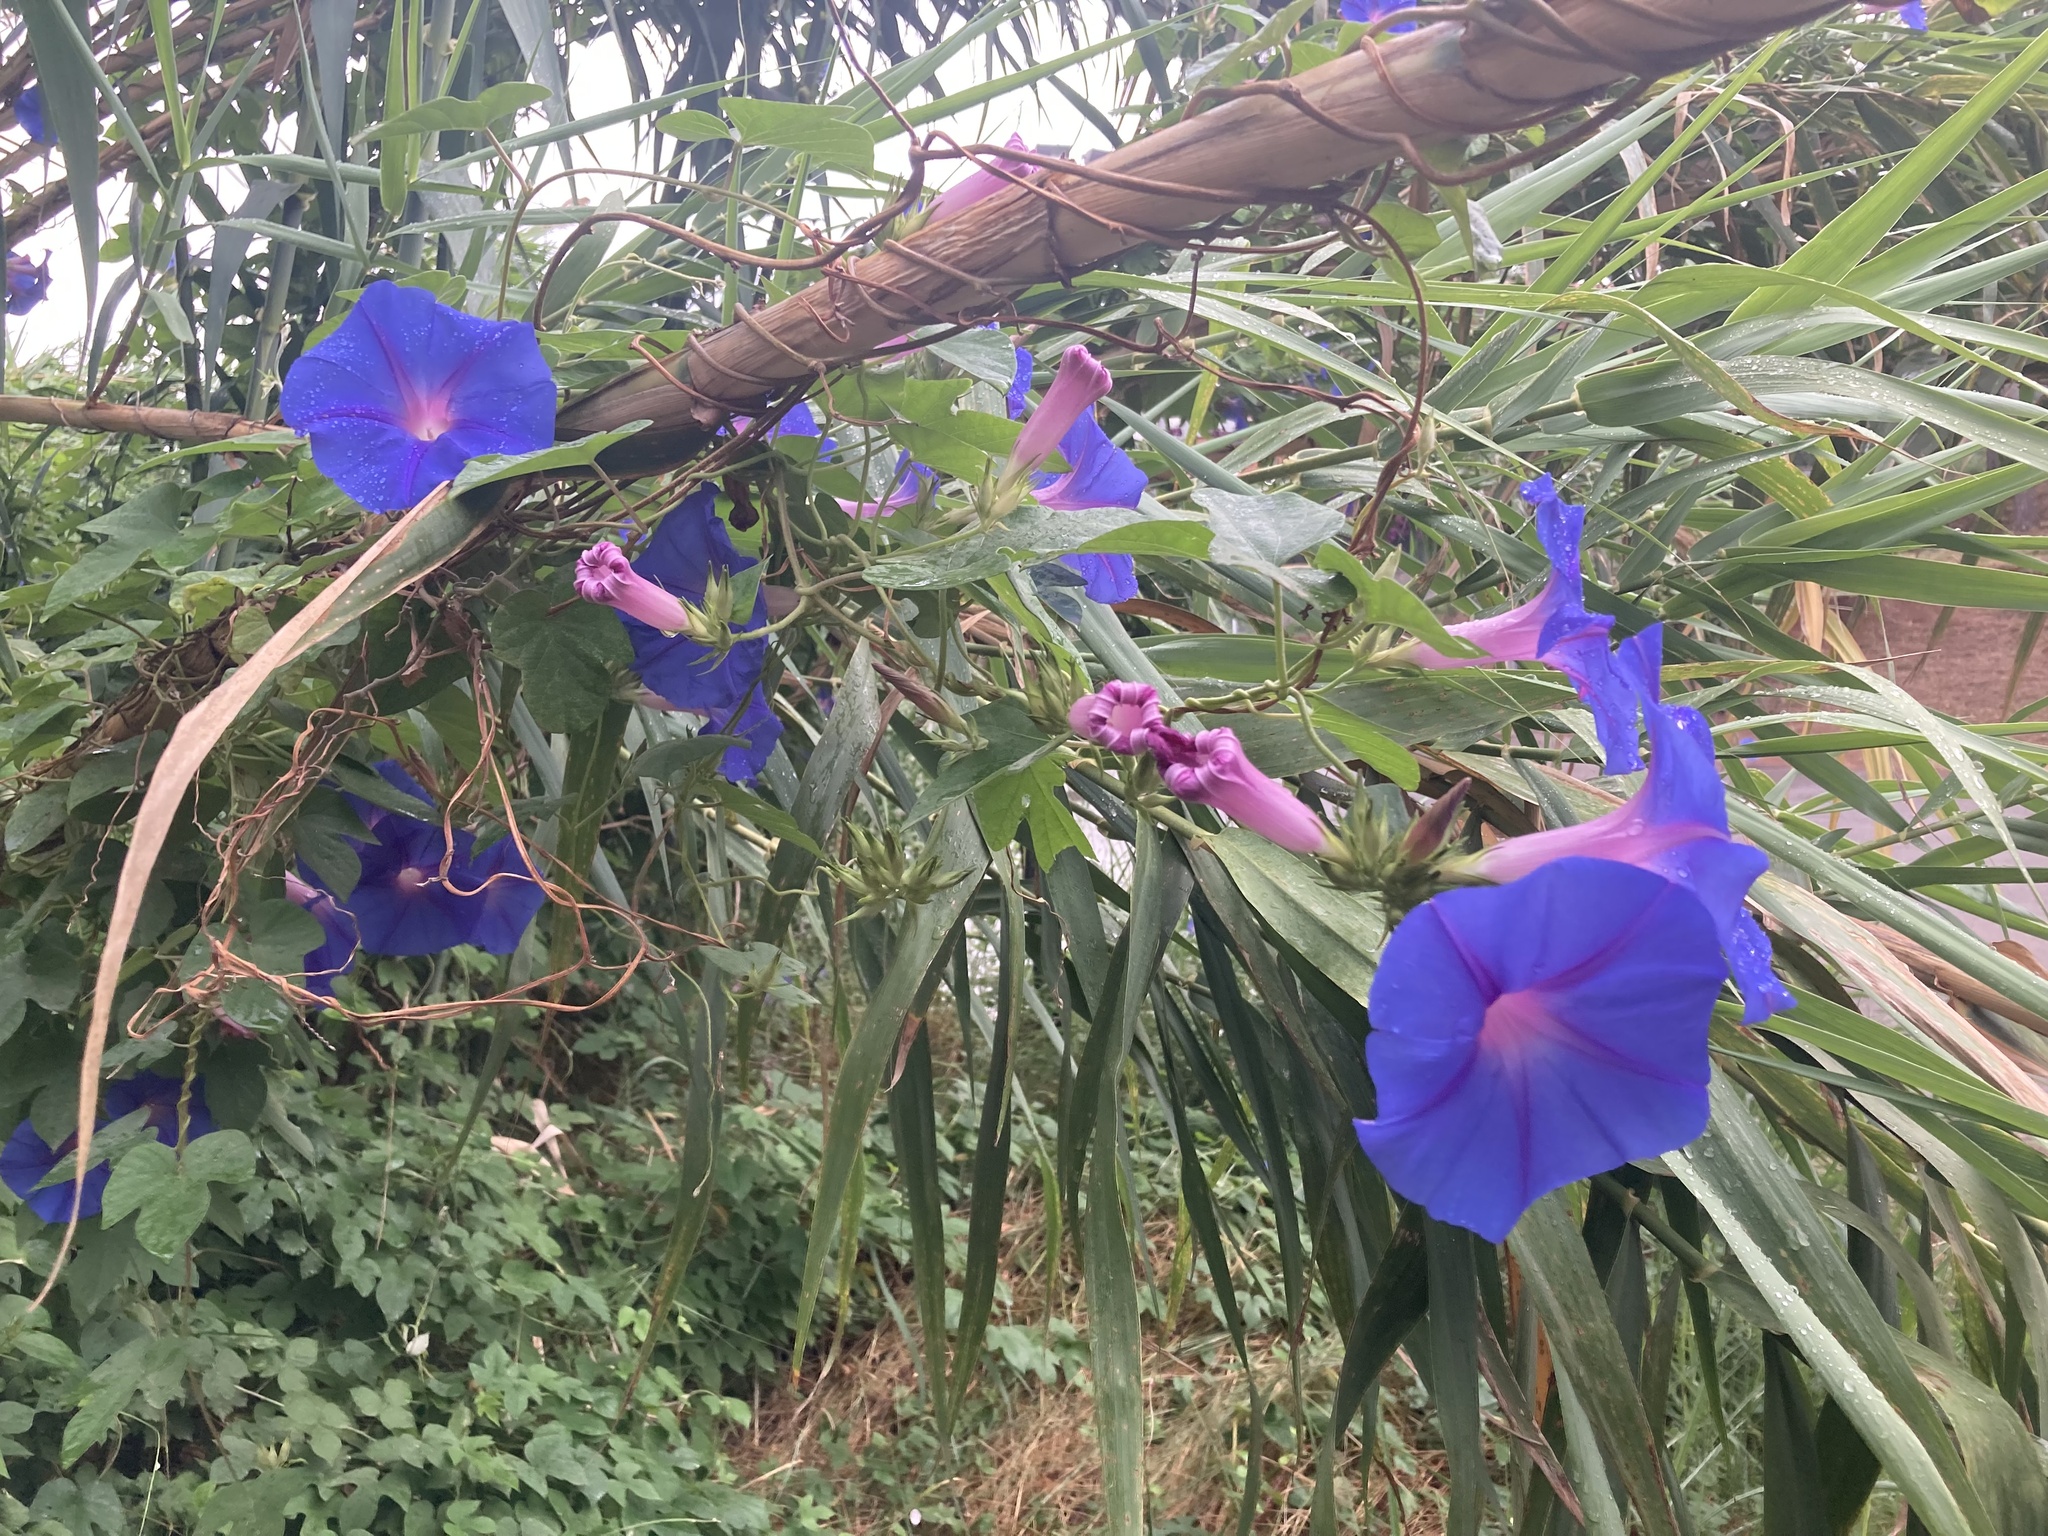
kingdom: Plantae
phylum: Tracheophyta
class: Magnoliopsida
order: Solanales
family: Convolvulaceae
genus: Ipomoea
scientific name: Ipomoea indica
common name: Blue dawnflower
